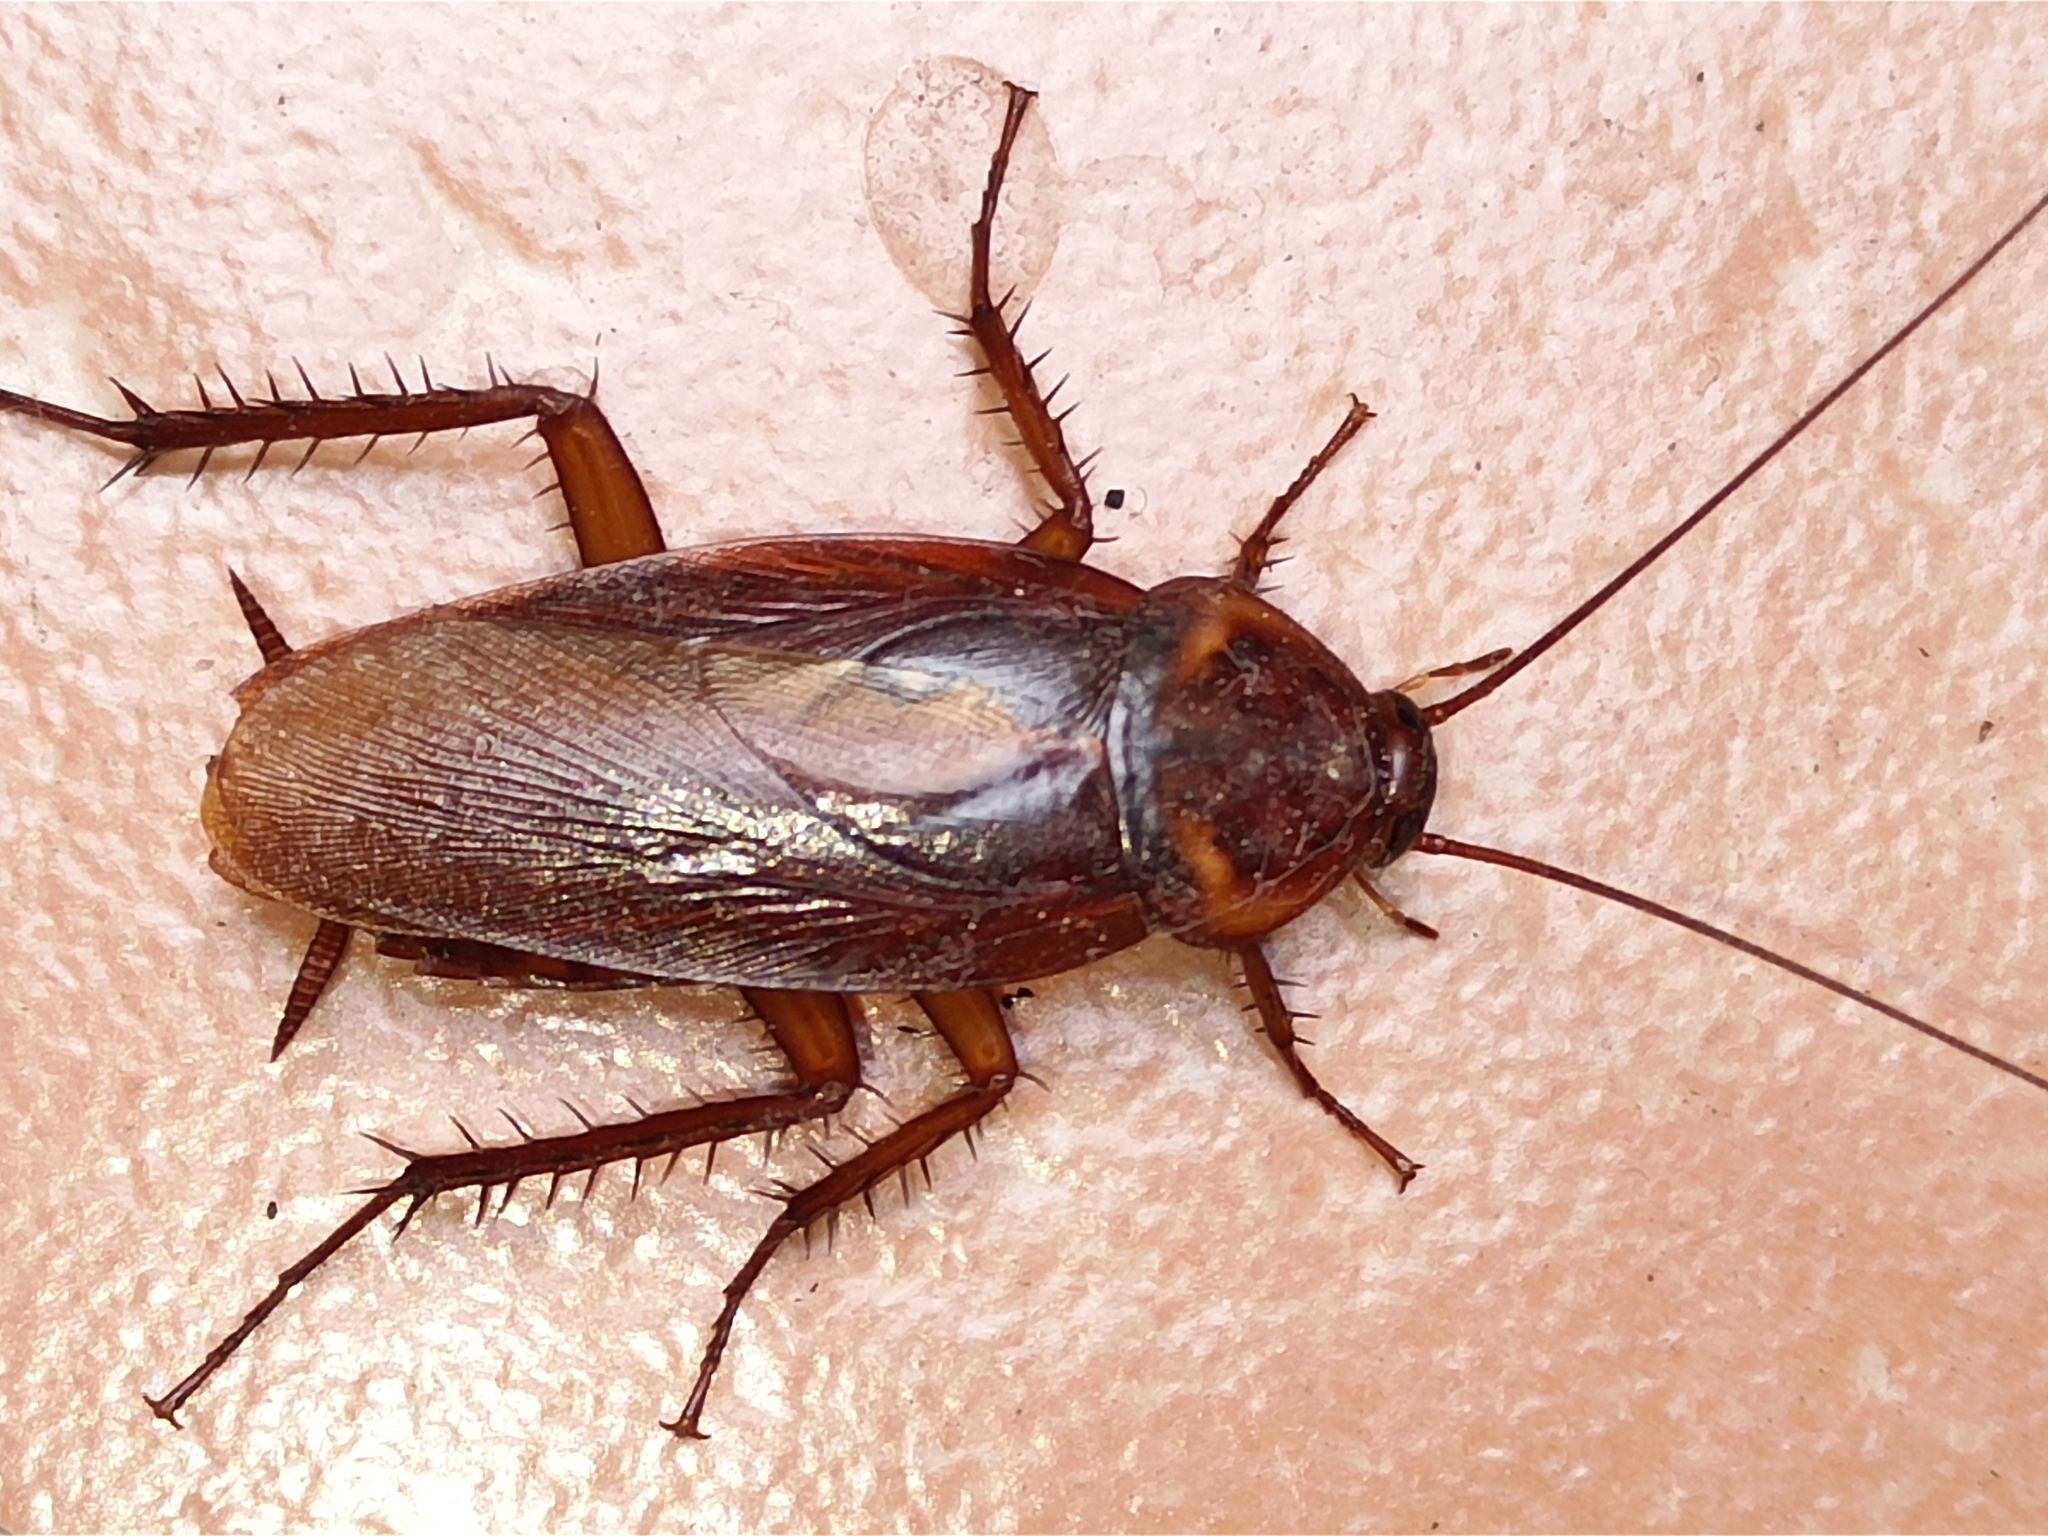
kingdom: Animalia
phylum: Arthropoda
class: Insecta
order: Blattodea
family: Blattidae
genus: Periplaneta
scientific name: Periplaneta americana
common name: American cockroach
